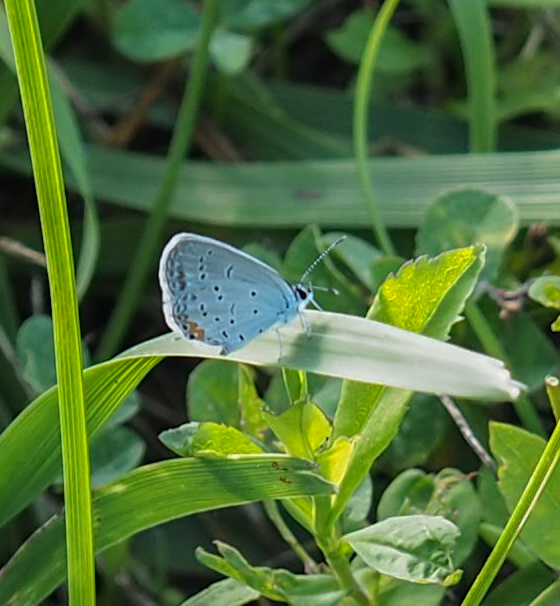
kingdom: Animalia
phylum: Arthropoda
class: Insecta
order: Lepidoptera
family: Lycaenidae
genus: Elkalyce
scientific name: Elkalyce comyntas
